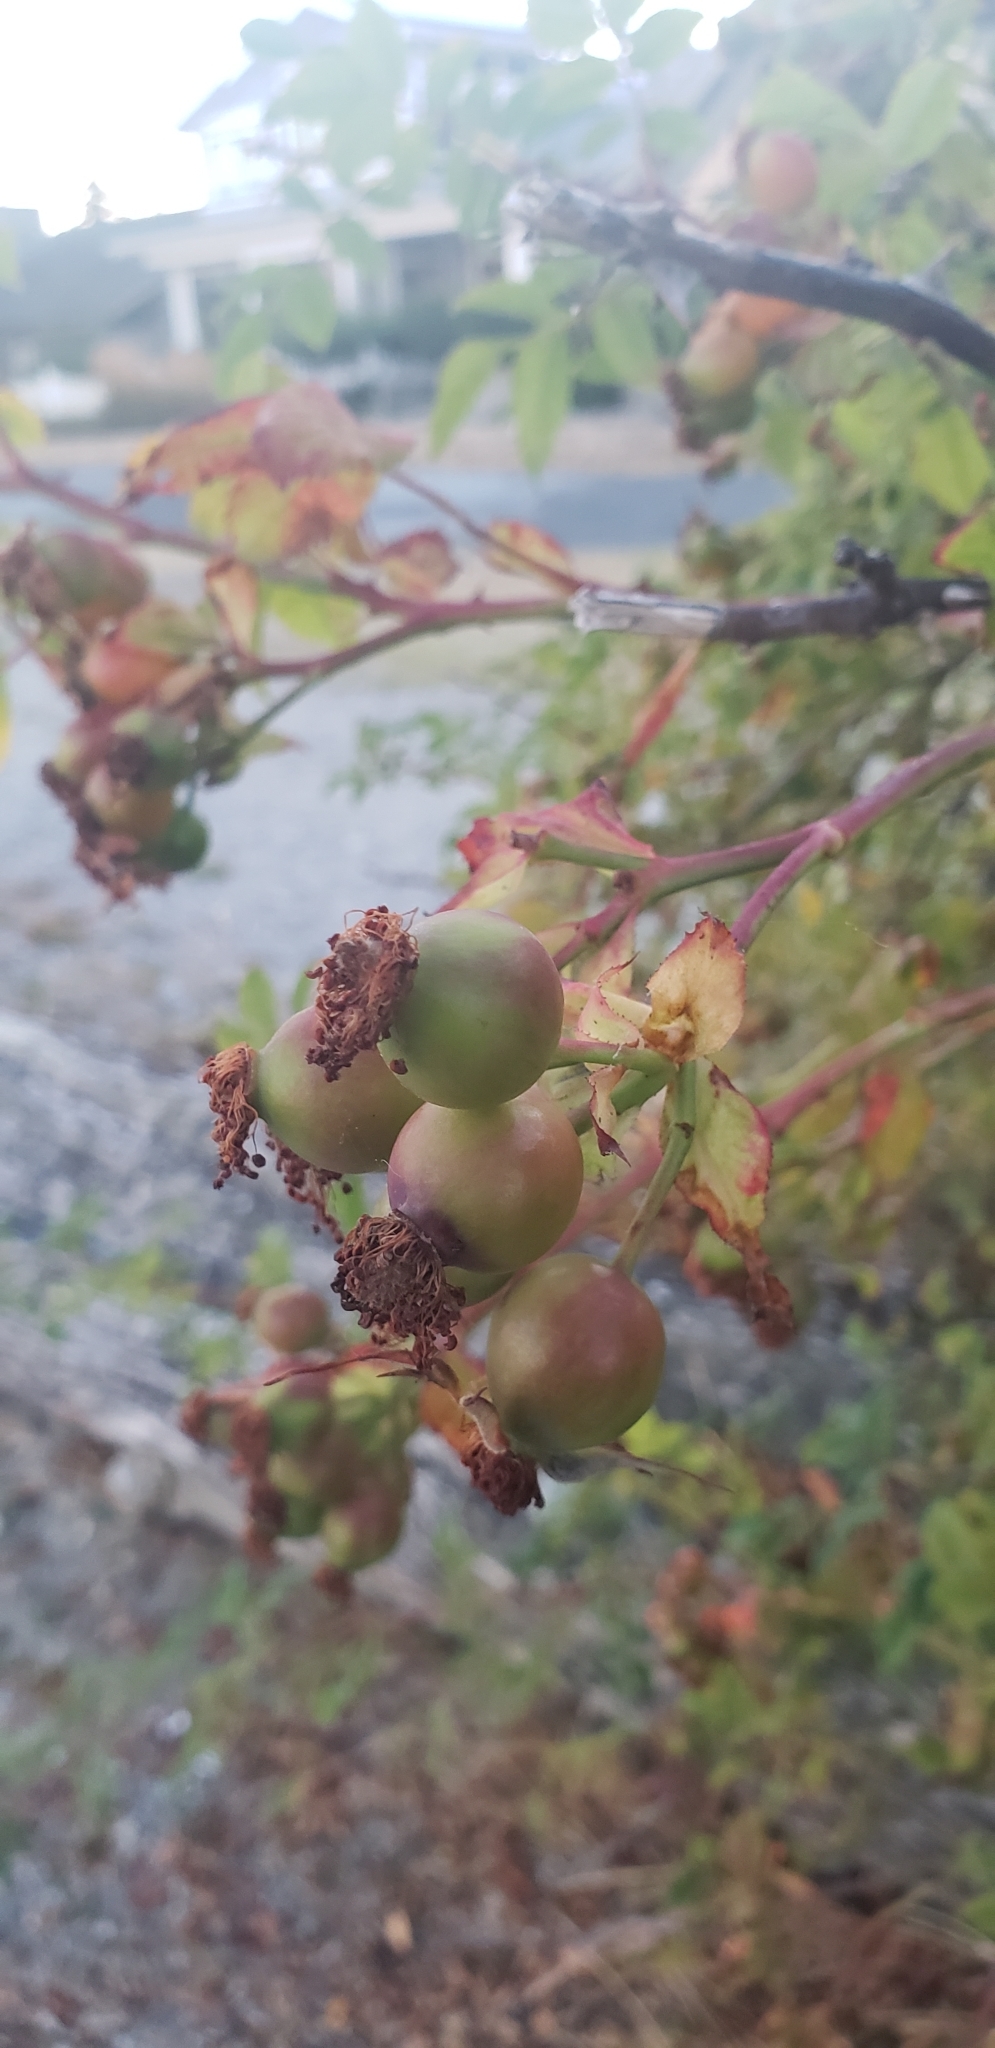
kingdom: Plantae
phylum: Tracheophyta
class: Magnoliopsida
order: Rosales
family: Rosaceae
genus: Rosa
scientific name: Rosa nutkana
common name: Nootka rose
